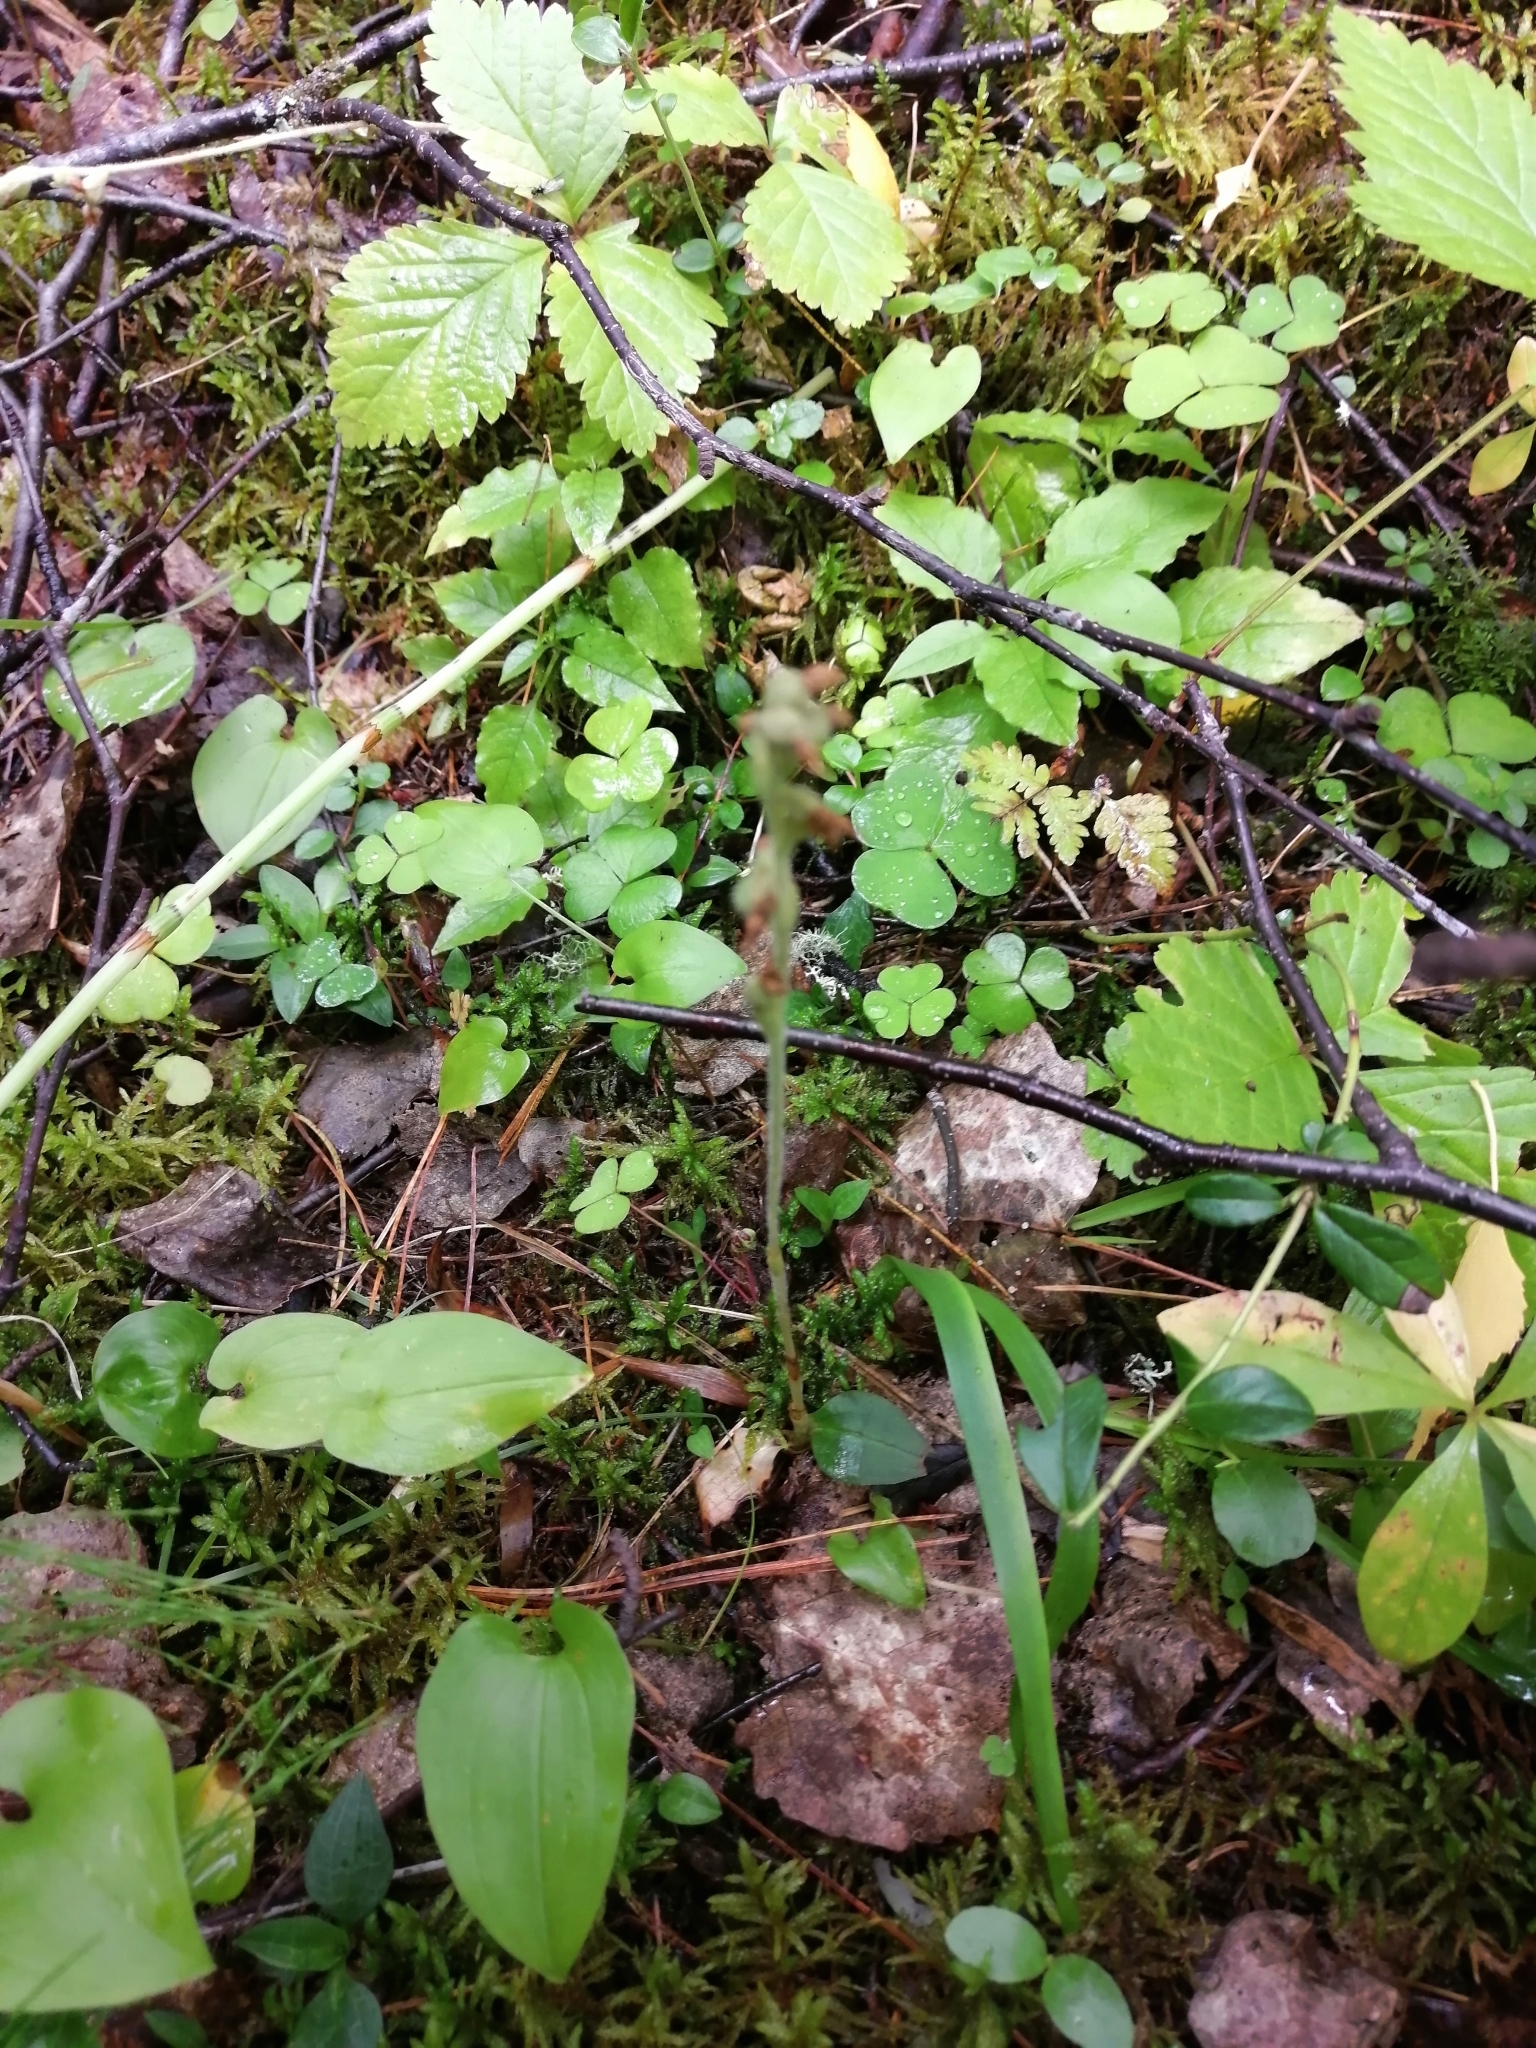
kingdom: Plantae
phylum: Tracheophyta
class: Liliopsida
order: Asparagales
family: Orchidaceae
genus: Goodyera
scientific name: Goodyera repens
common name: Creeping lady's-tresses
